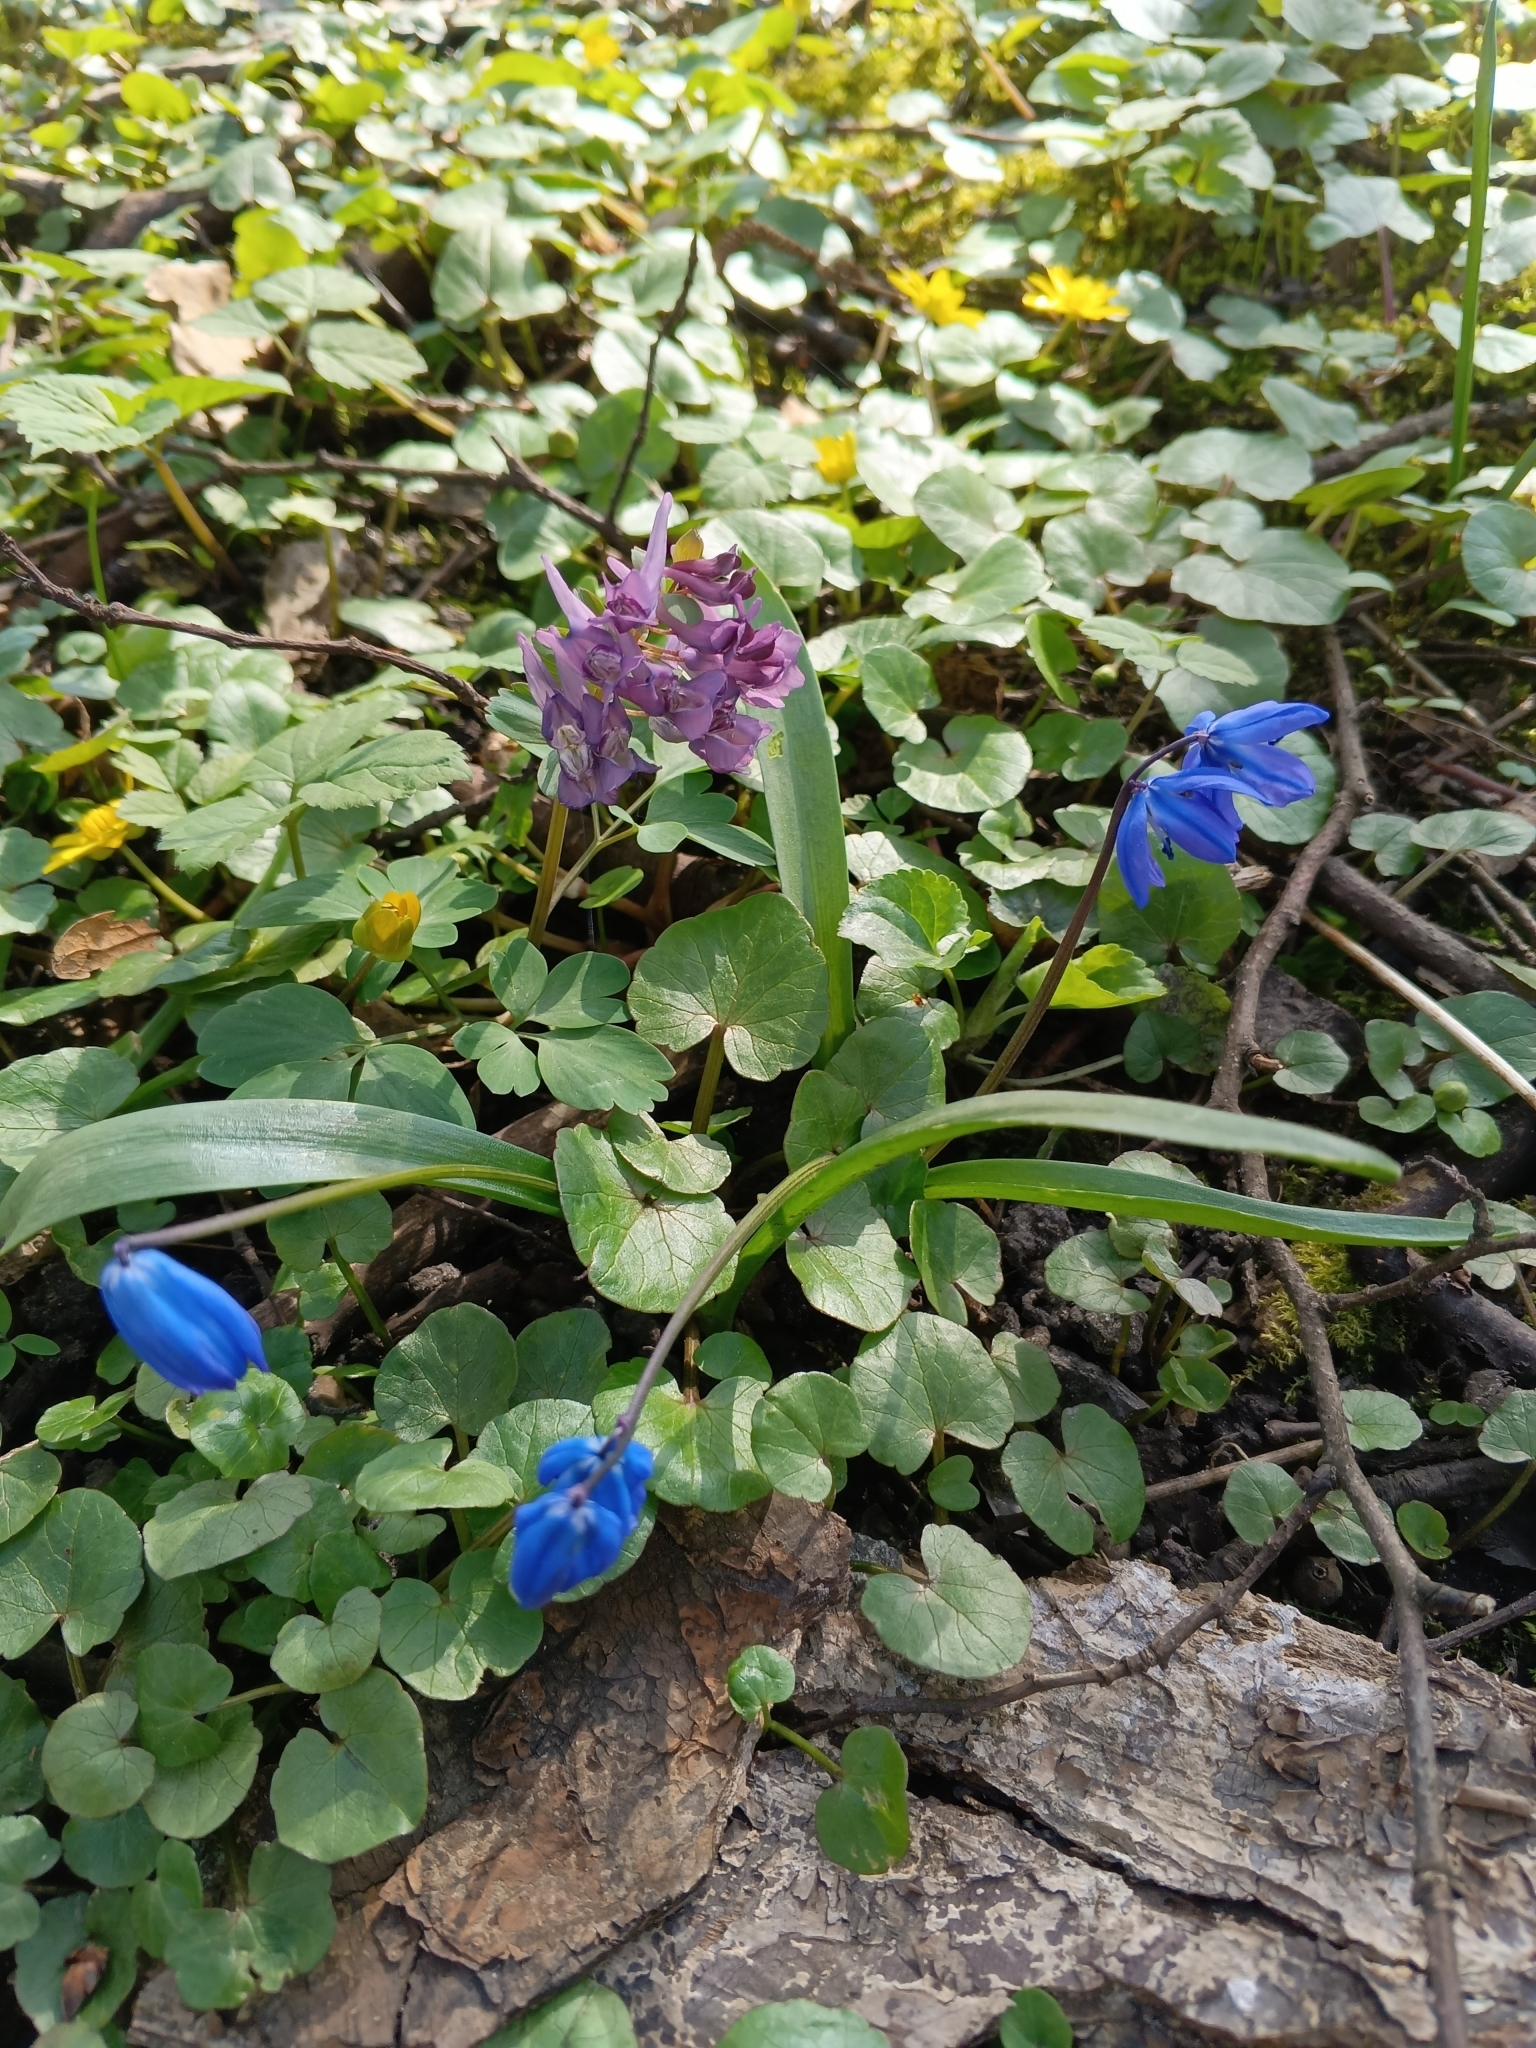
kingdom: Plantae
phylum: Tracheophyta
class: Liliopsida
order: Asparagales
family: Asparagaceae
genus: Scilla
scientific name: Scilla siberica
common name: Siberian squill
